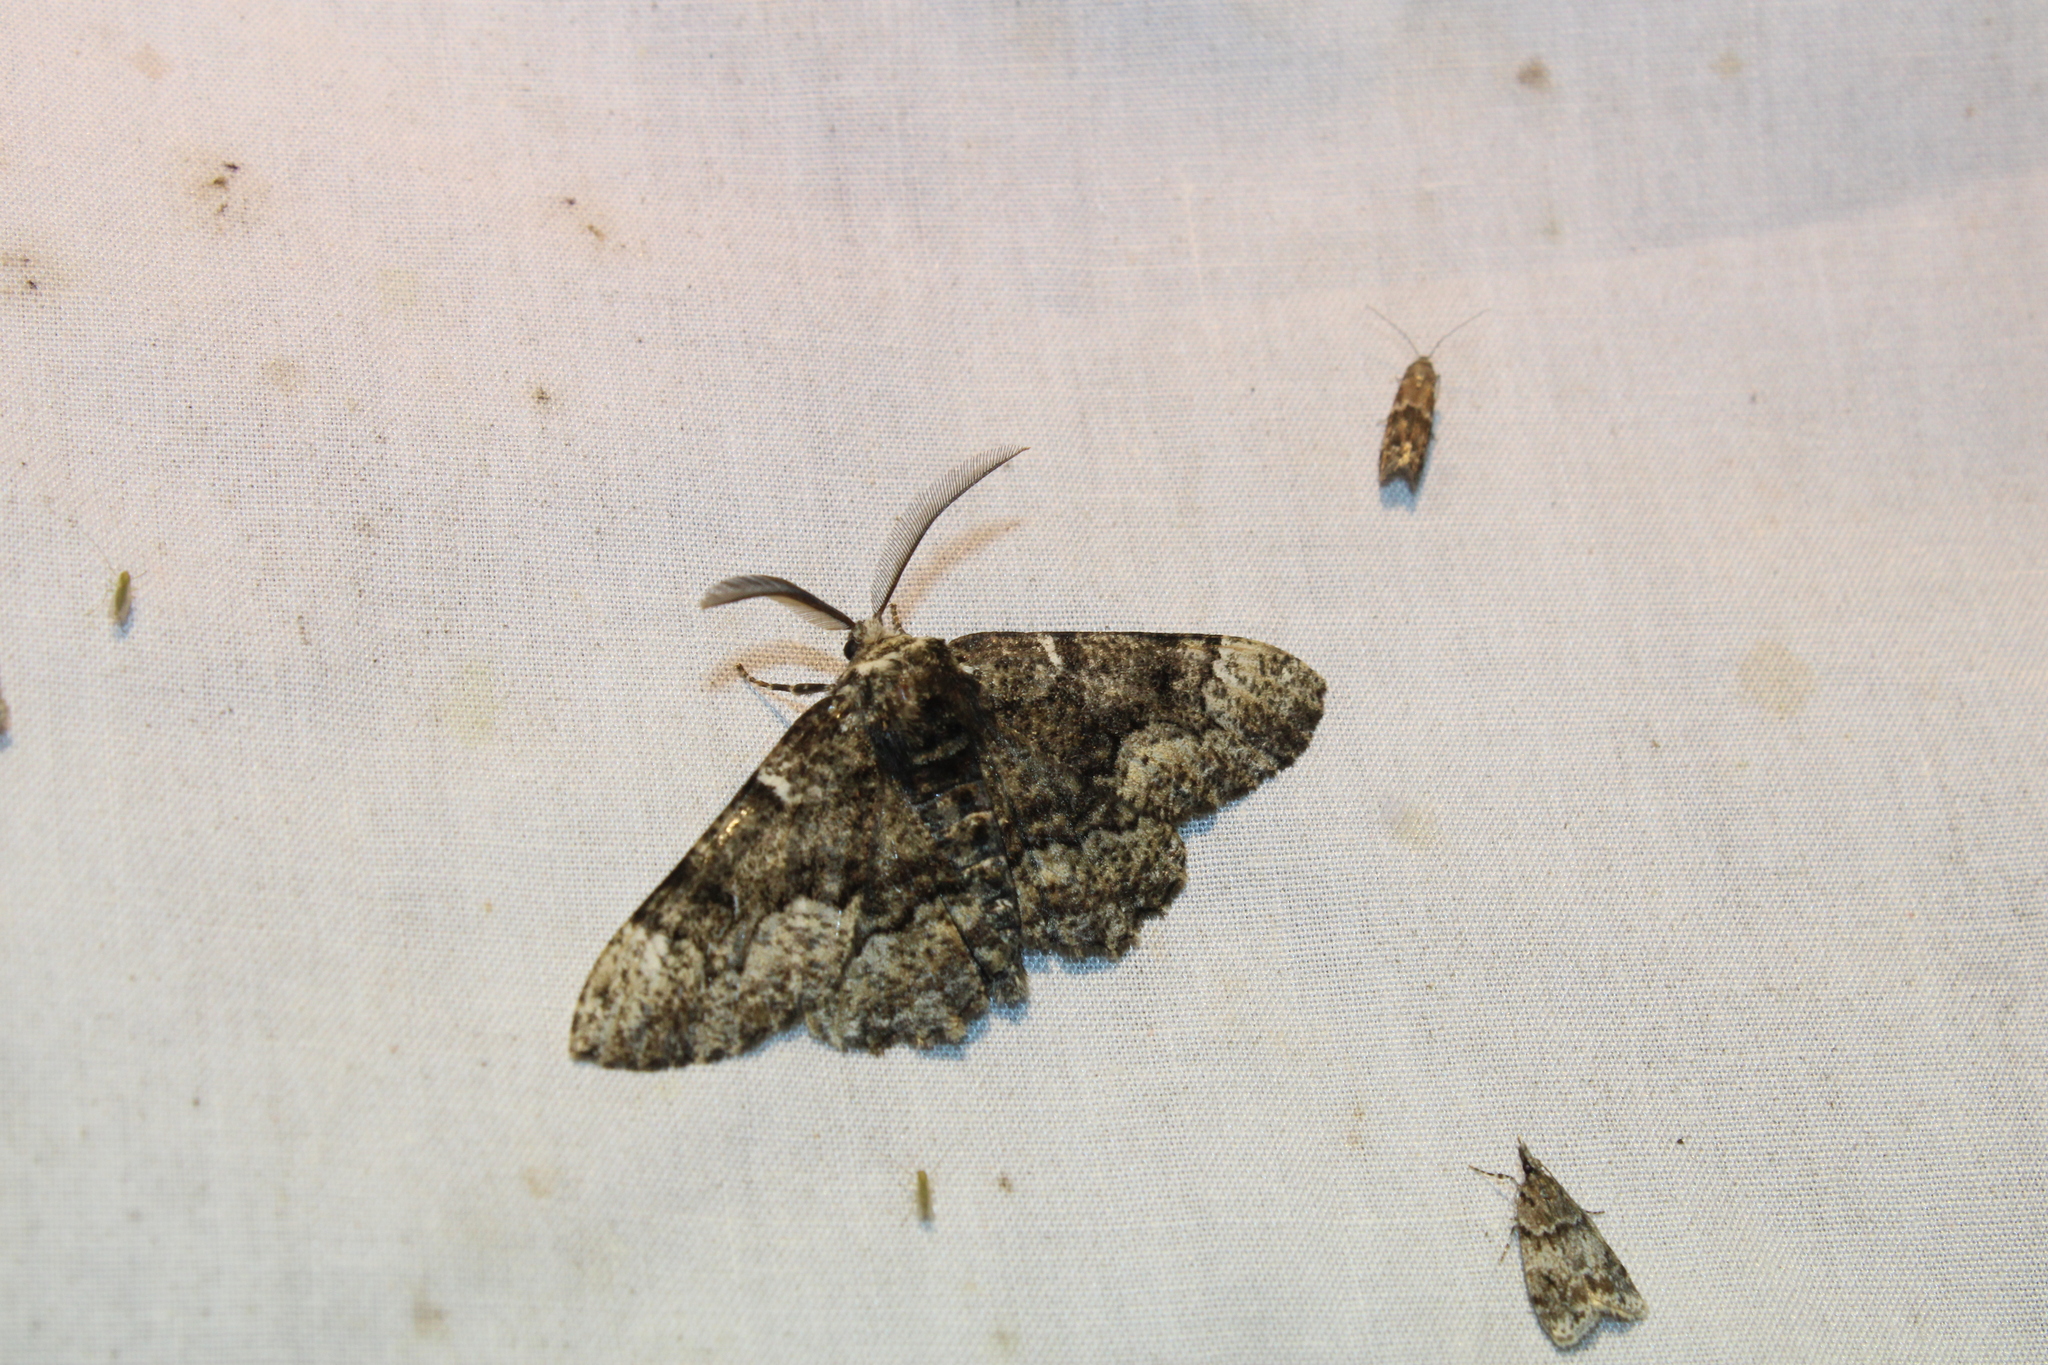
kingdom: Animalia
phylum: Arthropoda
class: Insecta
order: Lepidoptera
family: Geometridae
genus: Phaeoura
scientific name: Phaeoura quernaria
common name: Oak beauty
